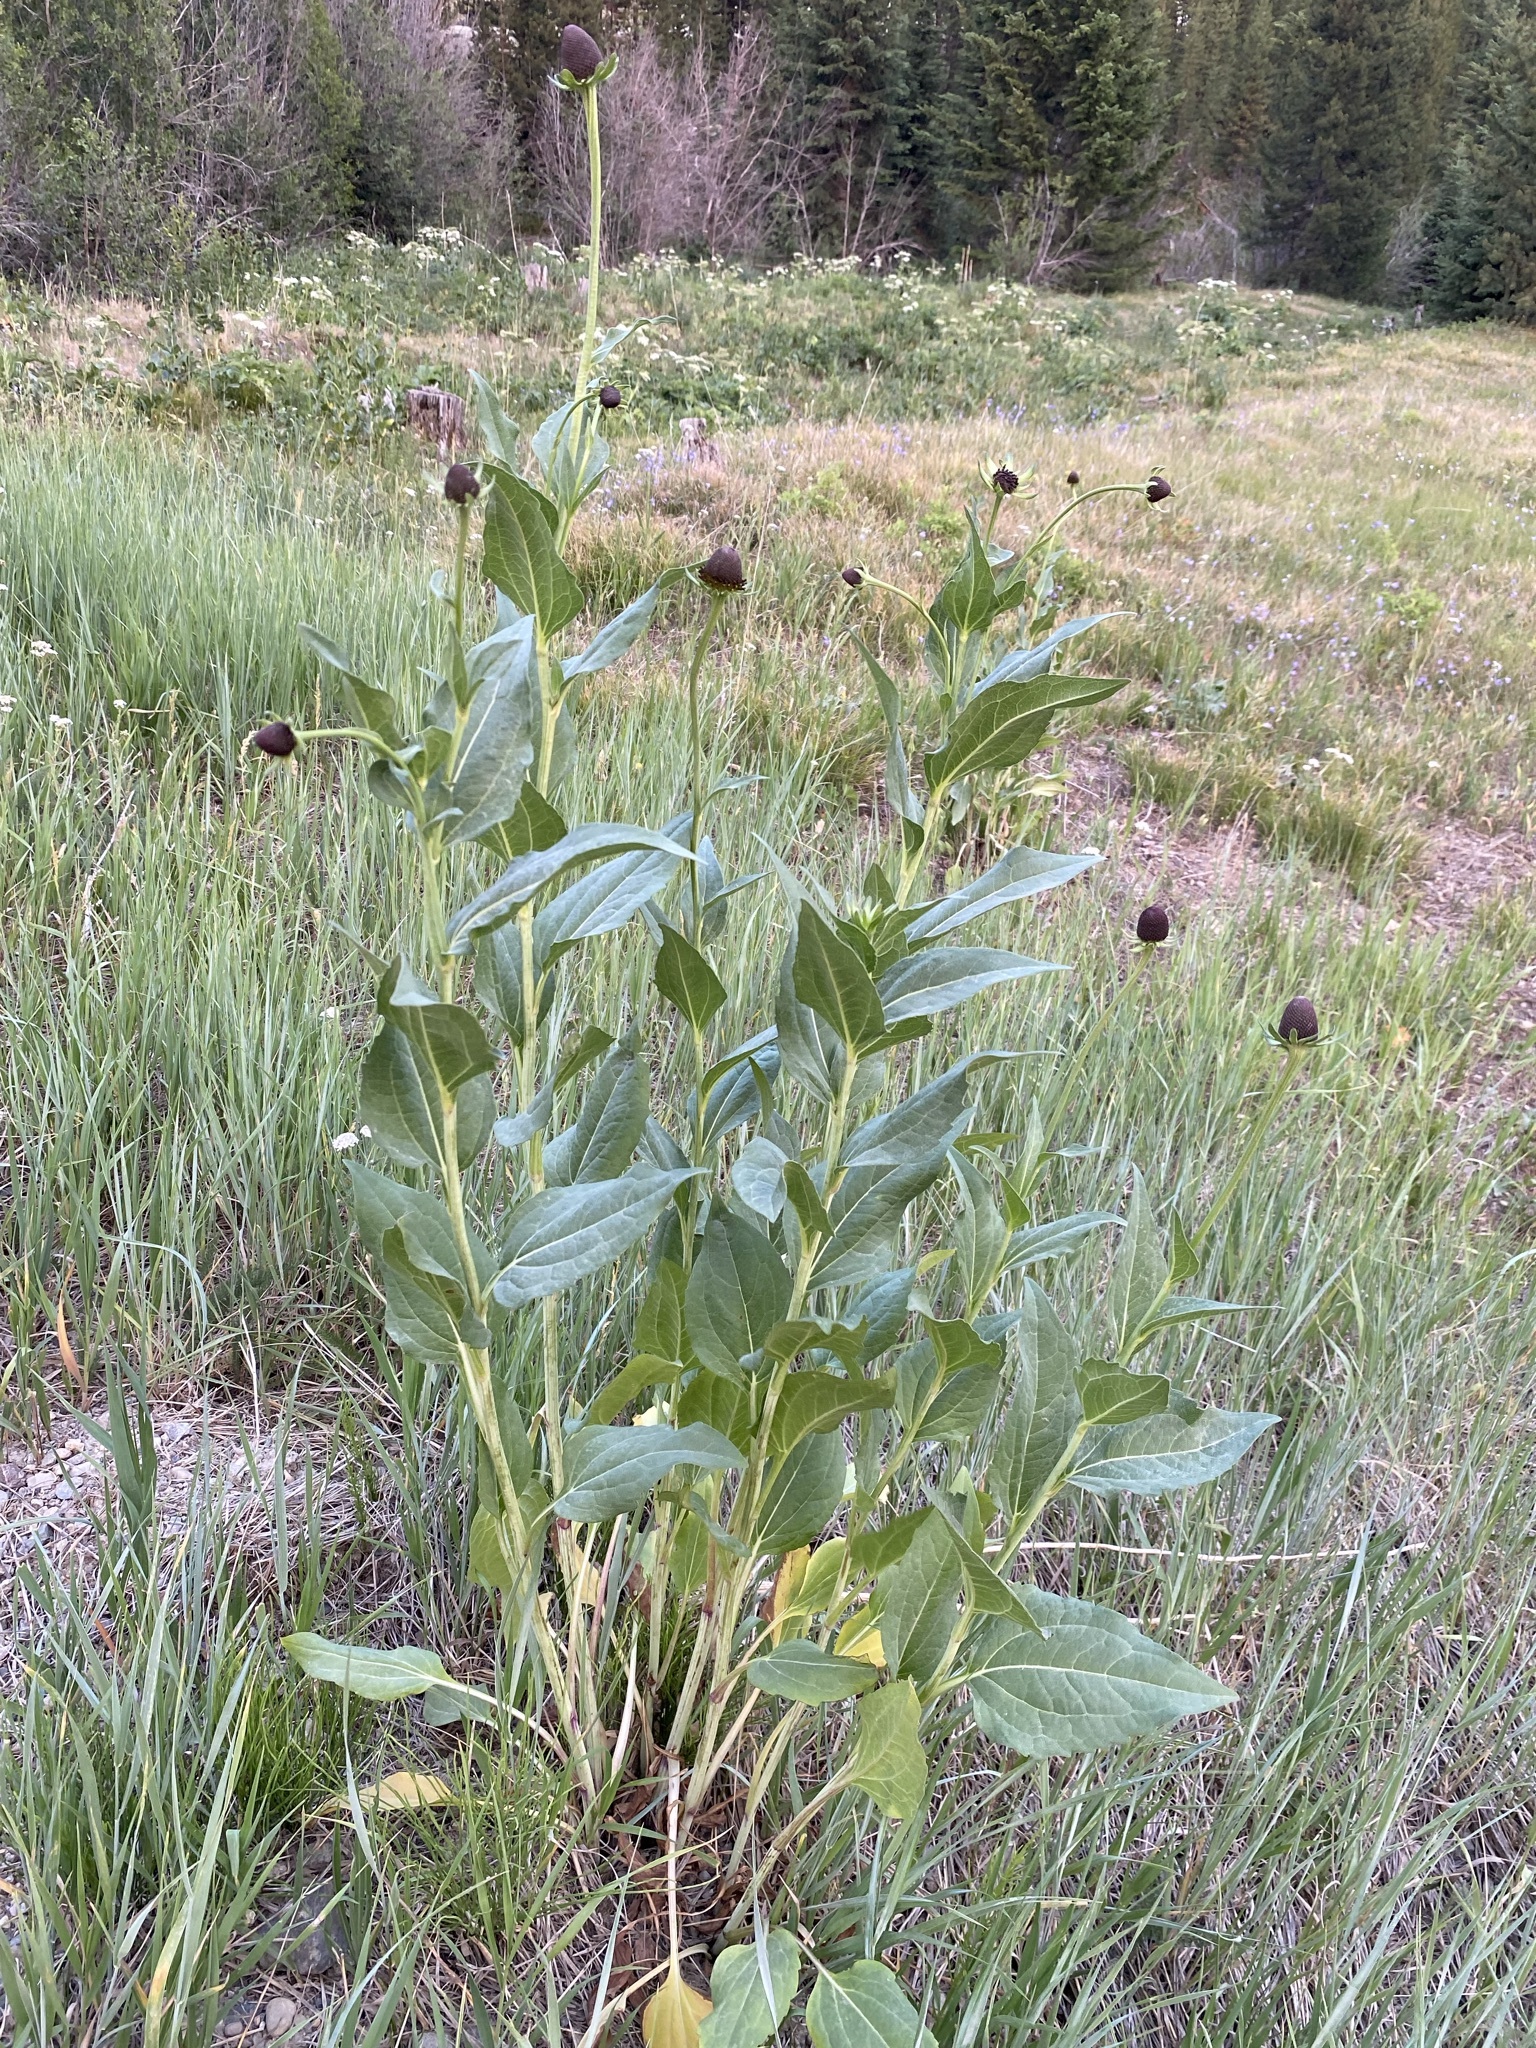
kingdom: Plantae
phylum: Tracheophyta
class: Magnoliopsida
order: Asterales
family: Asteraceae
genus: Rudbeckia
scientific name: Rudbeckia occidentalis
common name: Western coneflower
